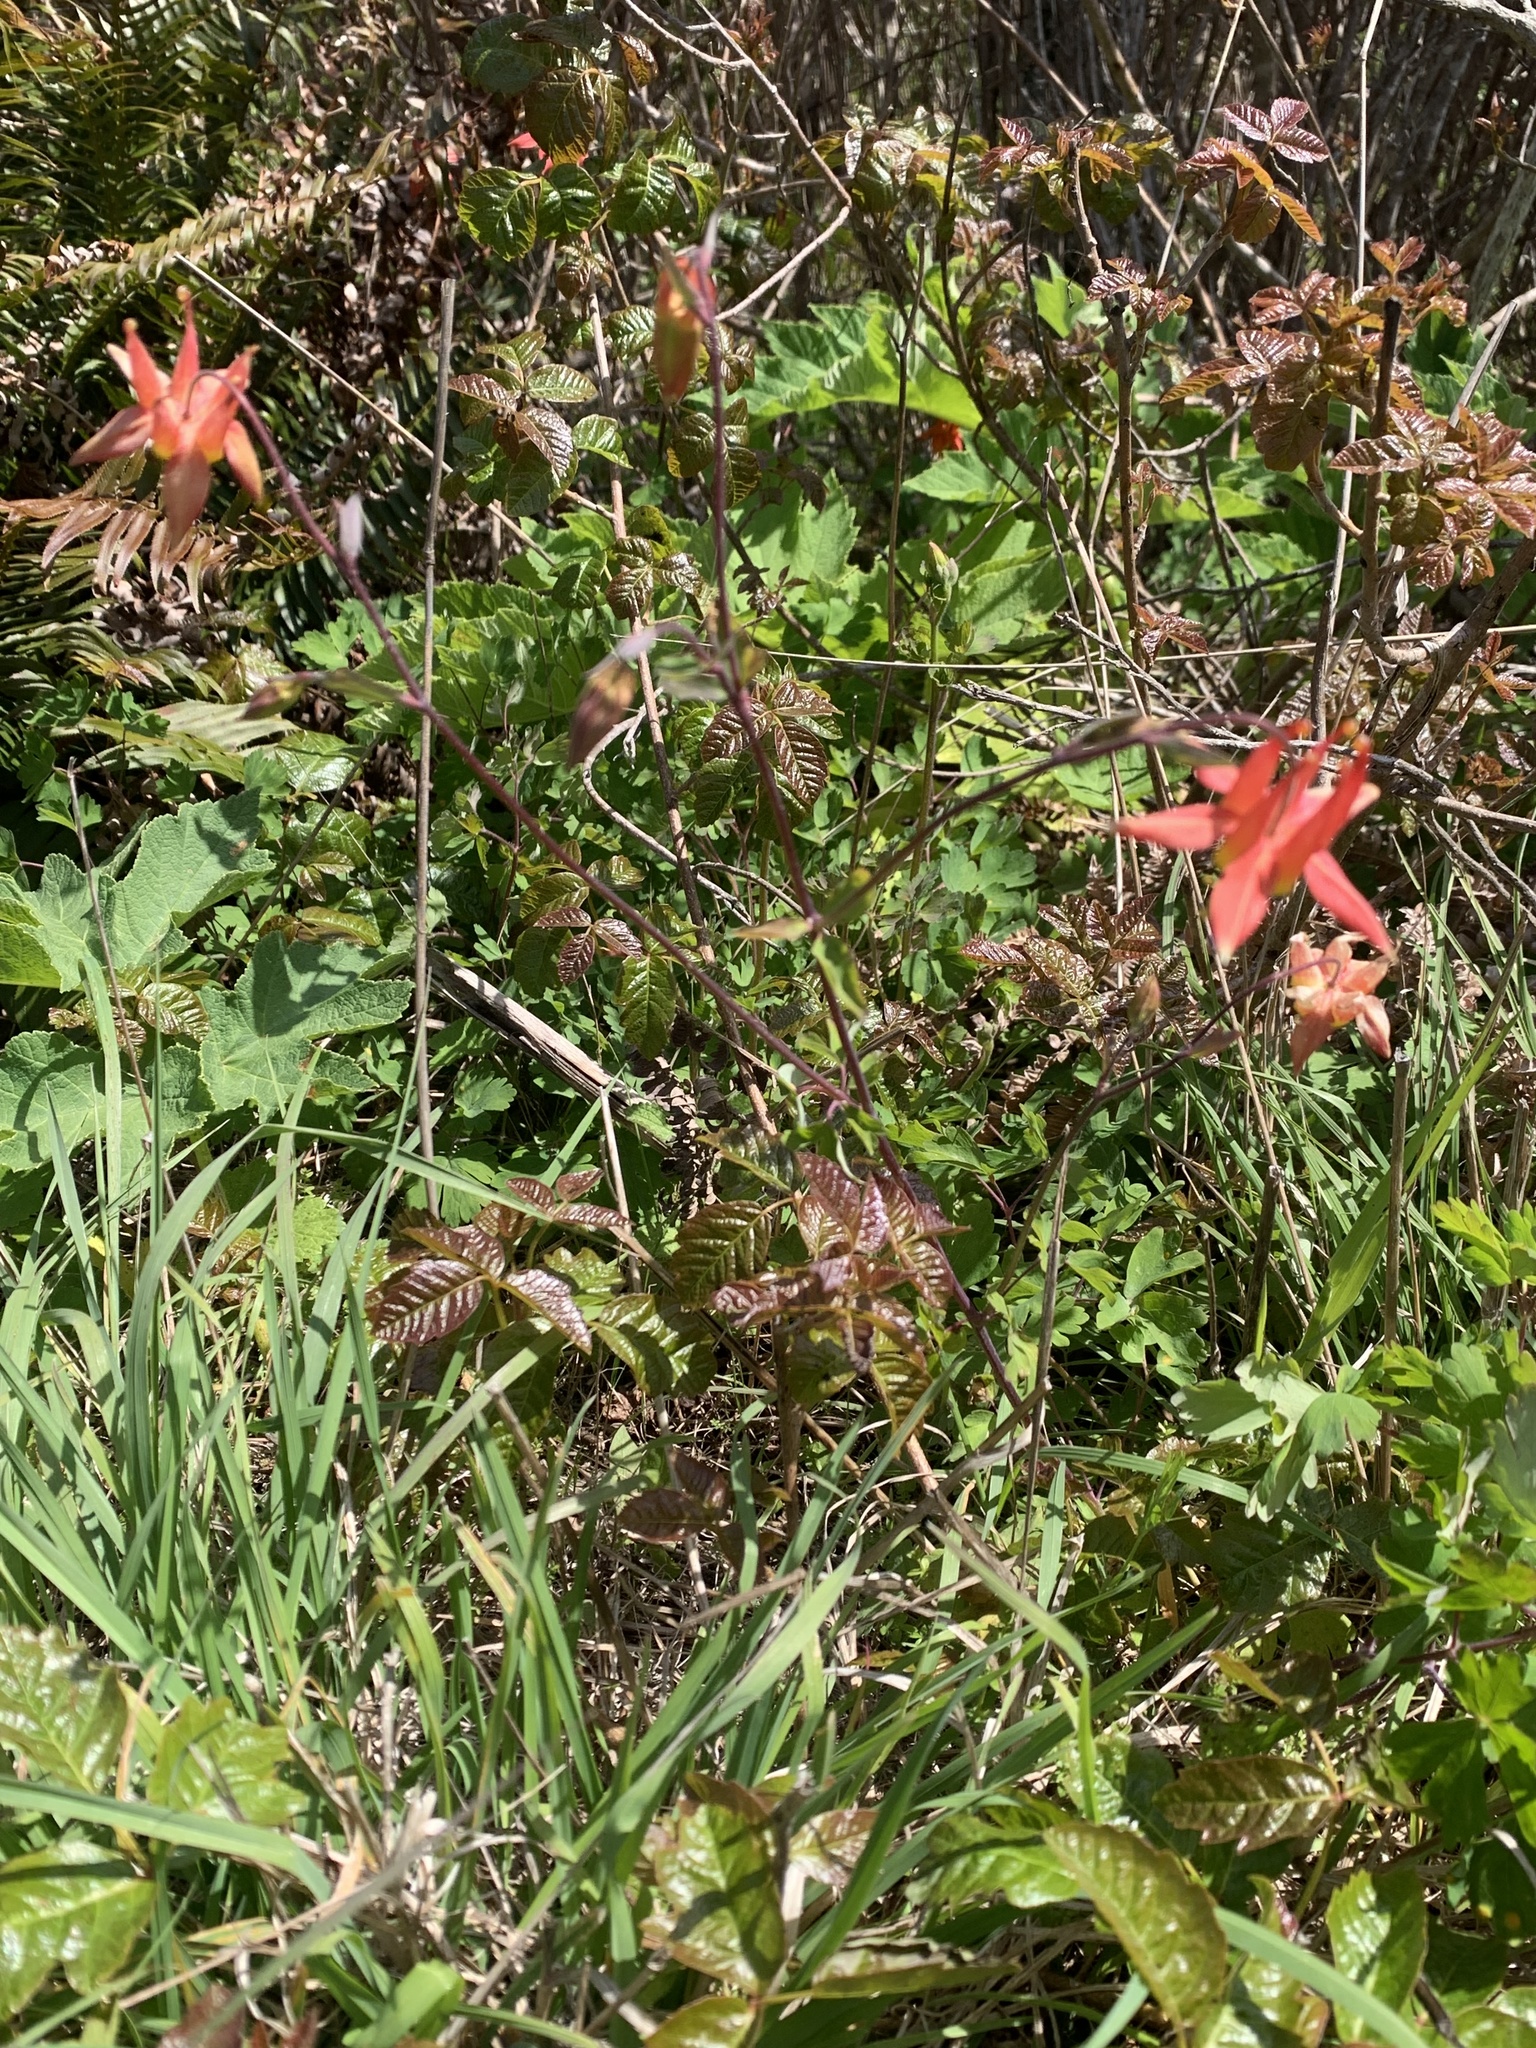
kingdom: Plantae
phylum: Tracheophyta
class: Magnoliopsida
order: Ranunculales
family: Ranunculaceae
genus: Aquilegia
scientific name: Aquilegia formosa
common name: Sitka columbine
